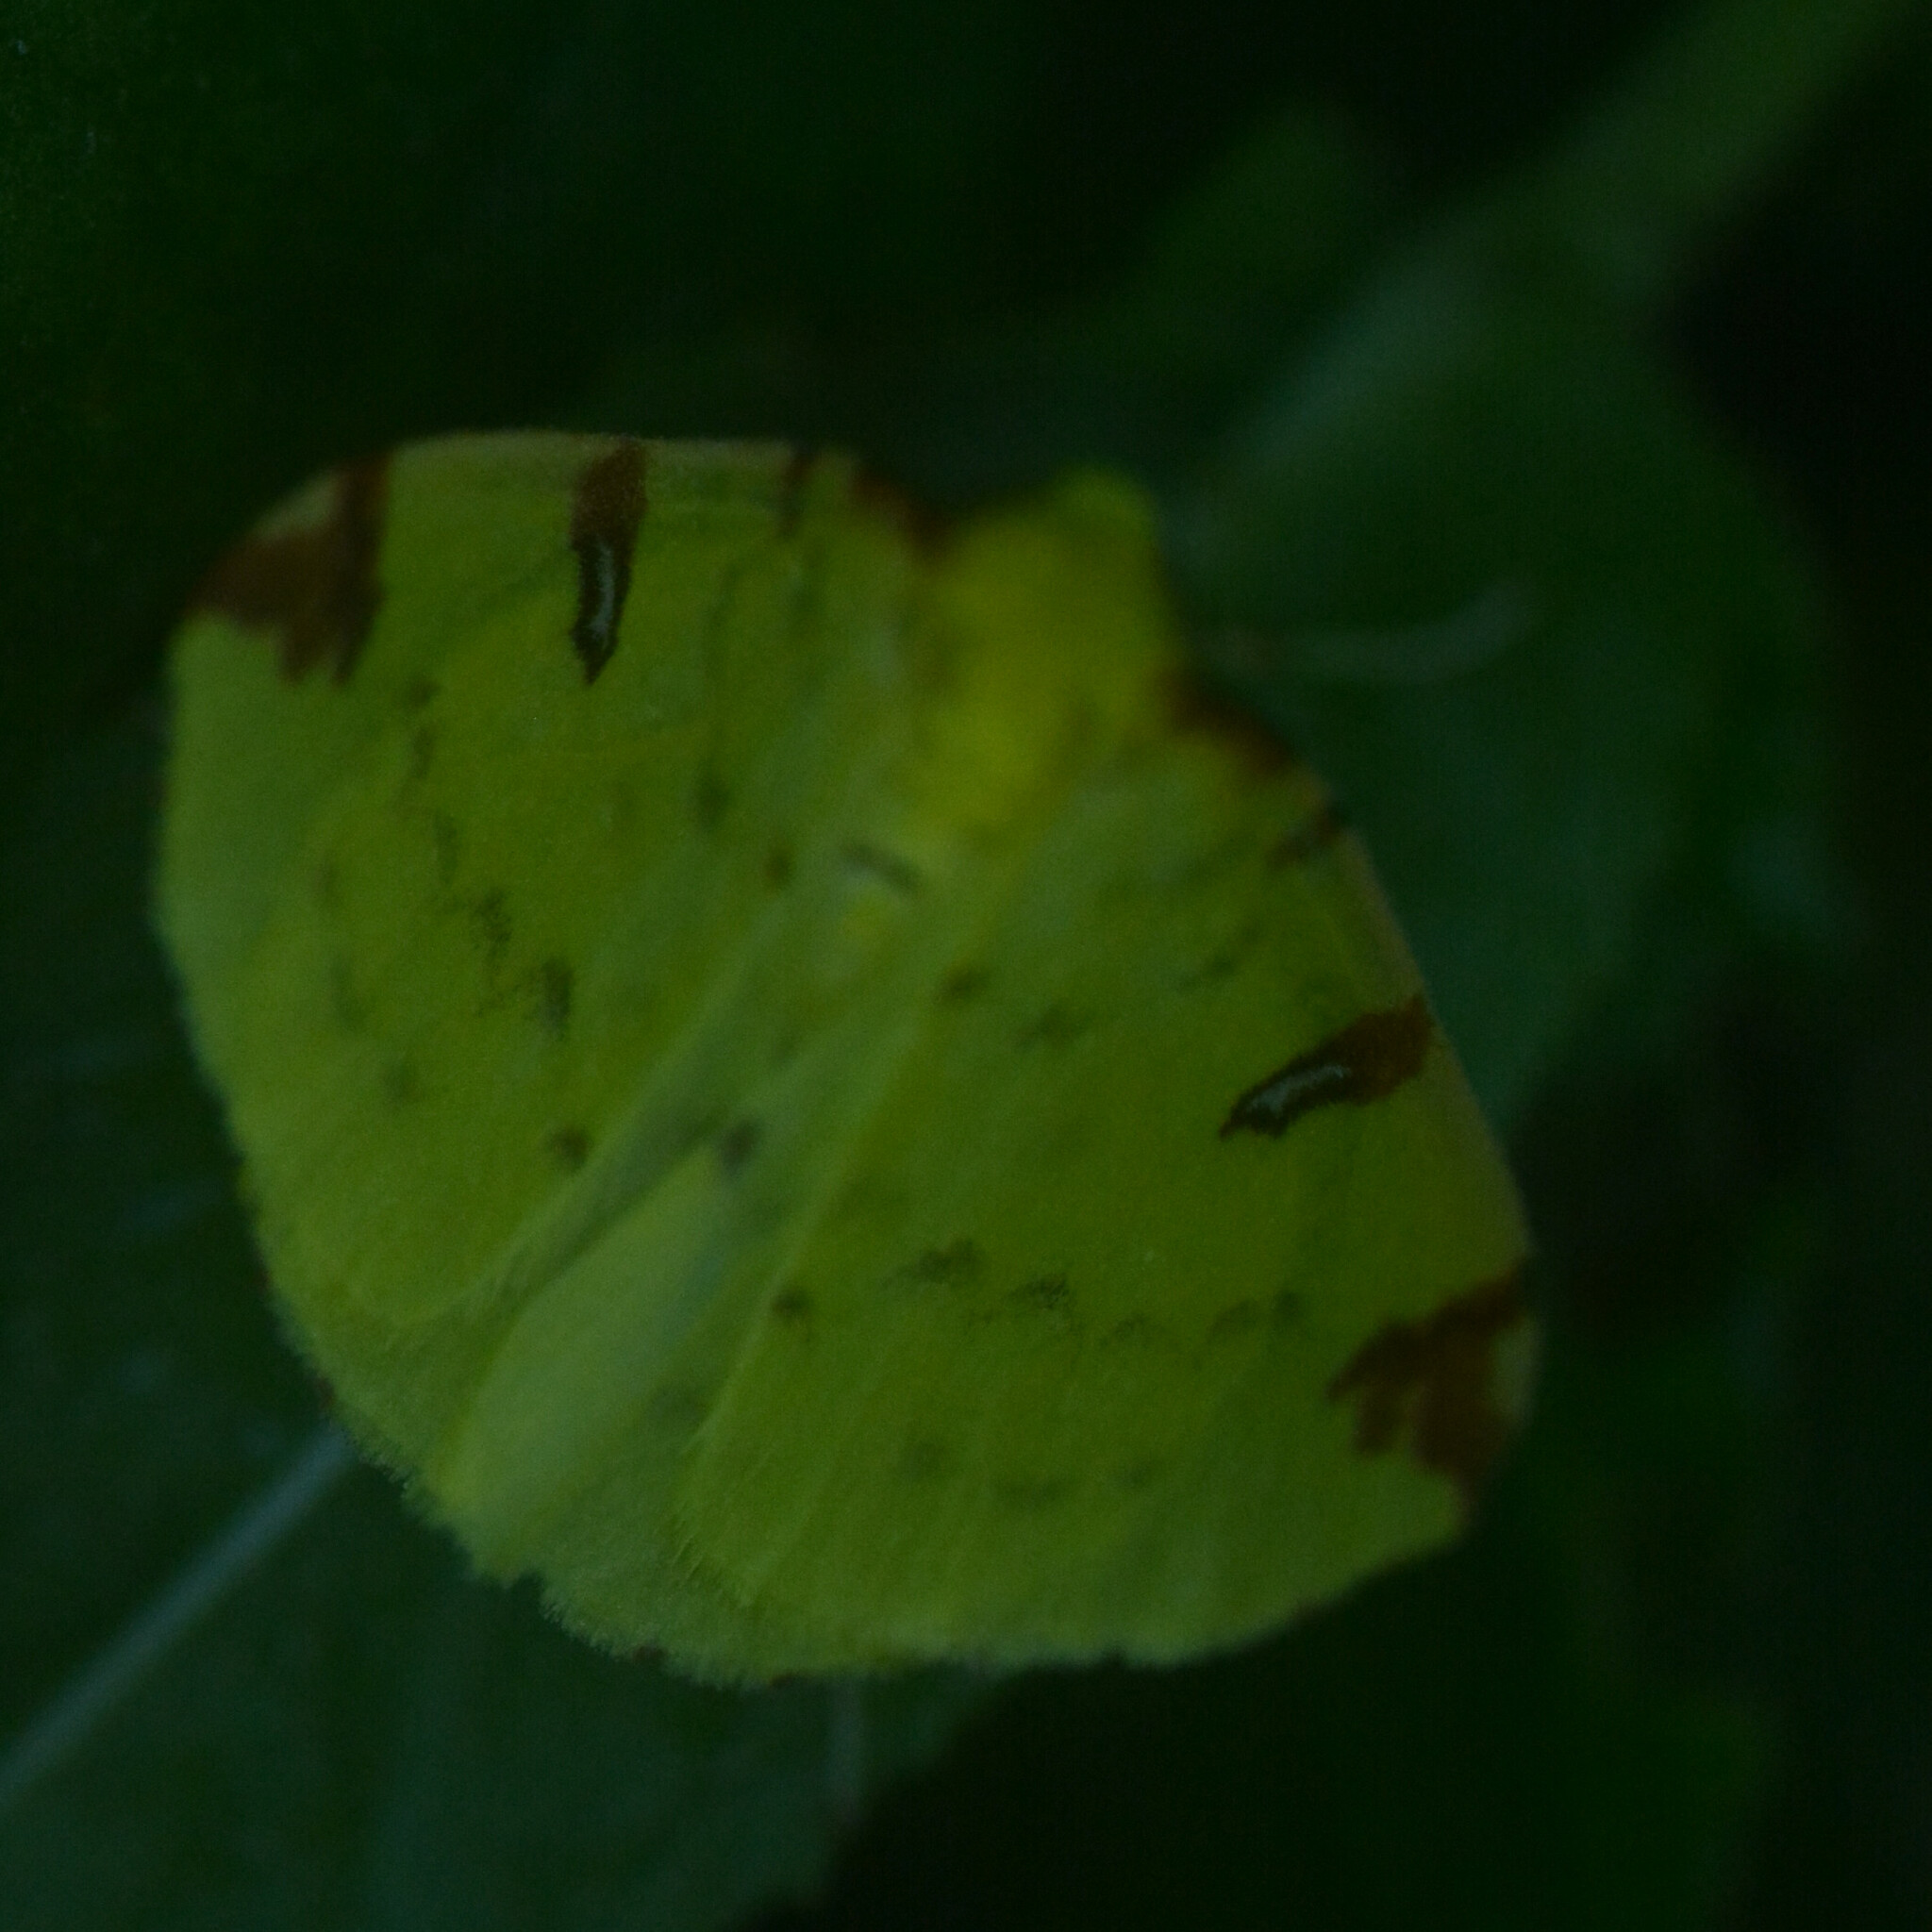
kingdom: Animalia
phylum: Arthropoda
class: Insecta
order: Lepidoptera
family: Geometridae
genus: Opisthograptis
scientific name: Opisthograptis luteolata
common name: Brimstone moth
